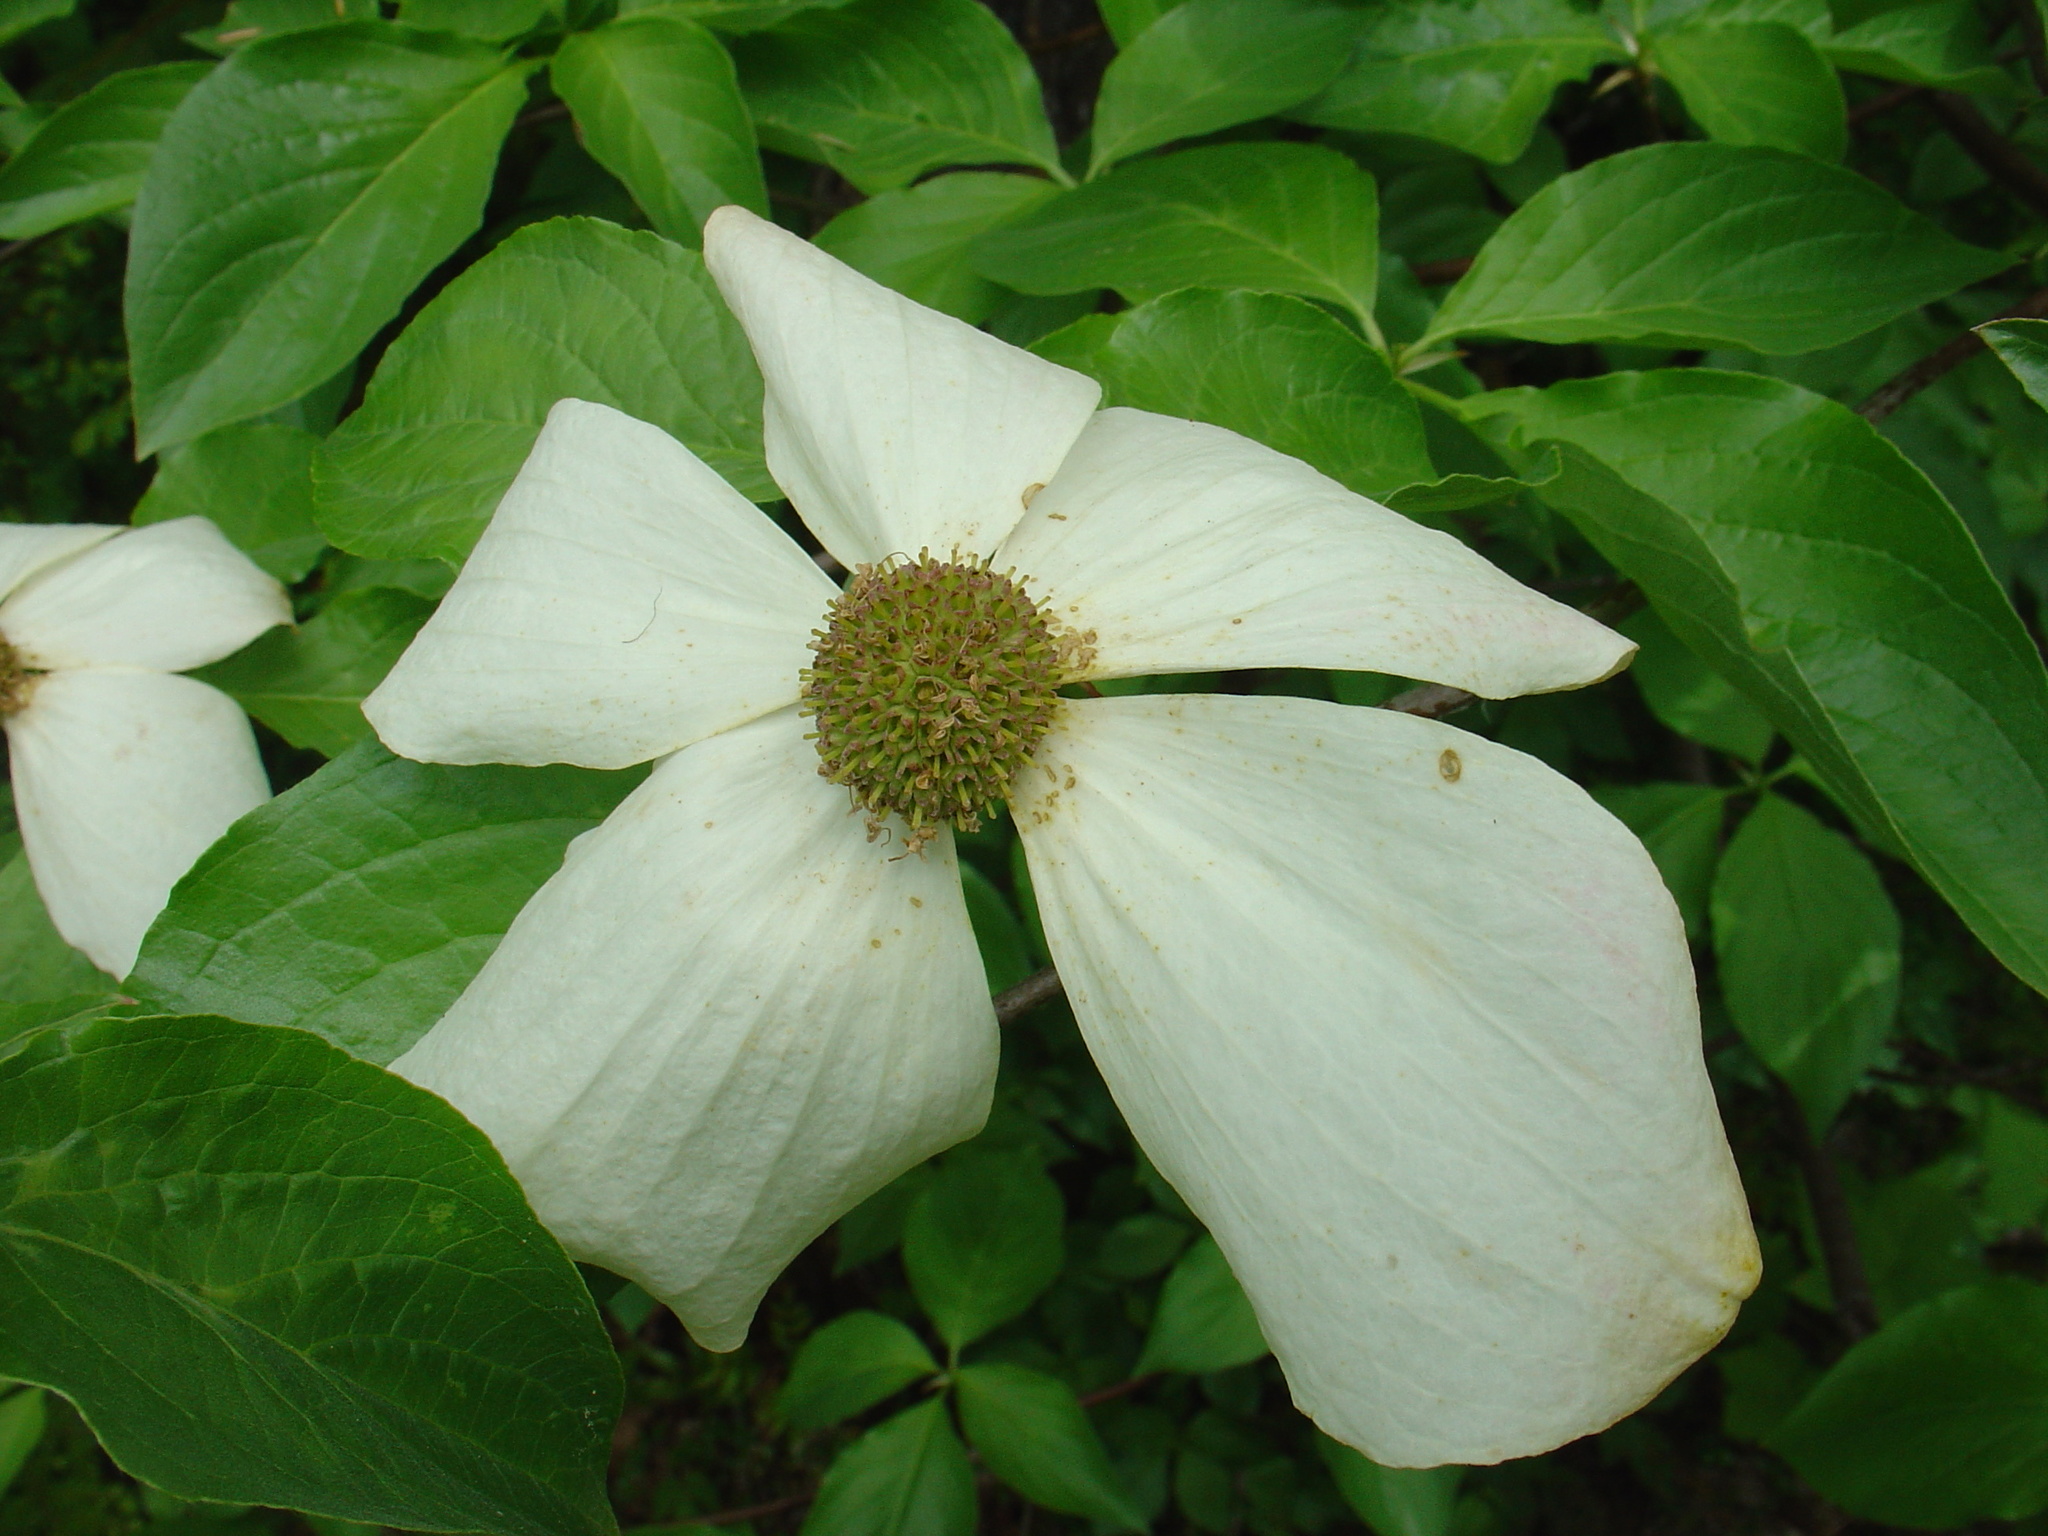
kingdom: Plantae
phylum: Tracheophyta
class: Magnoliopsida
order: Cornales
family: Cornaceae
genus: Cornus
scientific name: Cornus nuttallii
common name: Pacific dogwood
